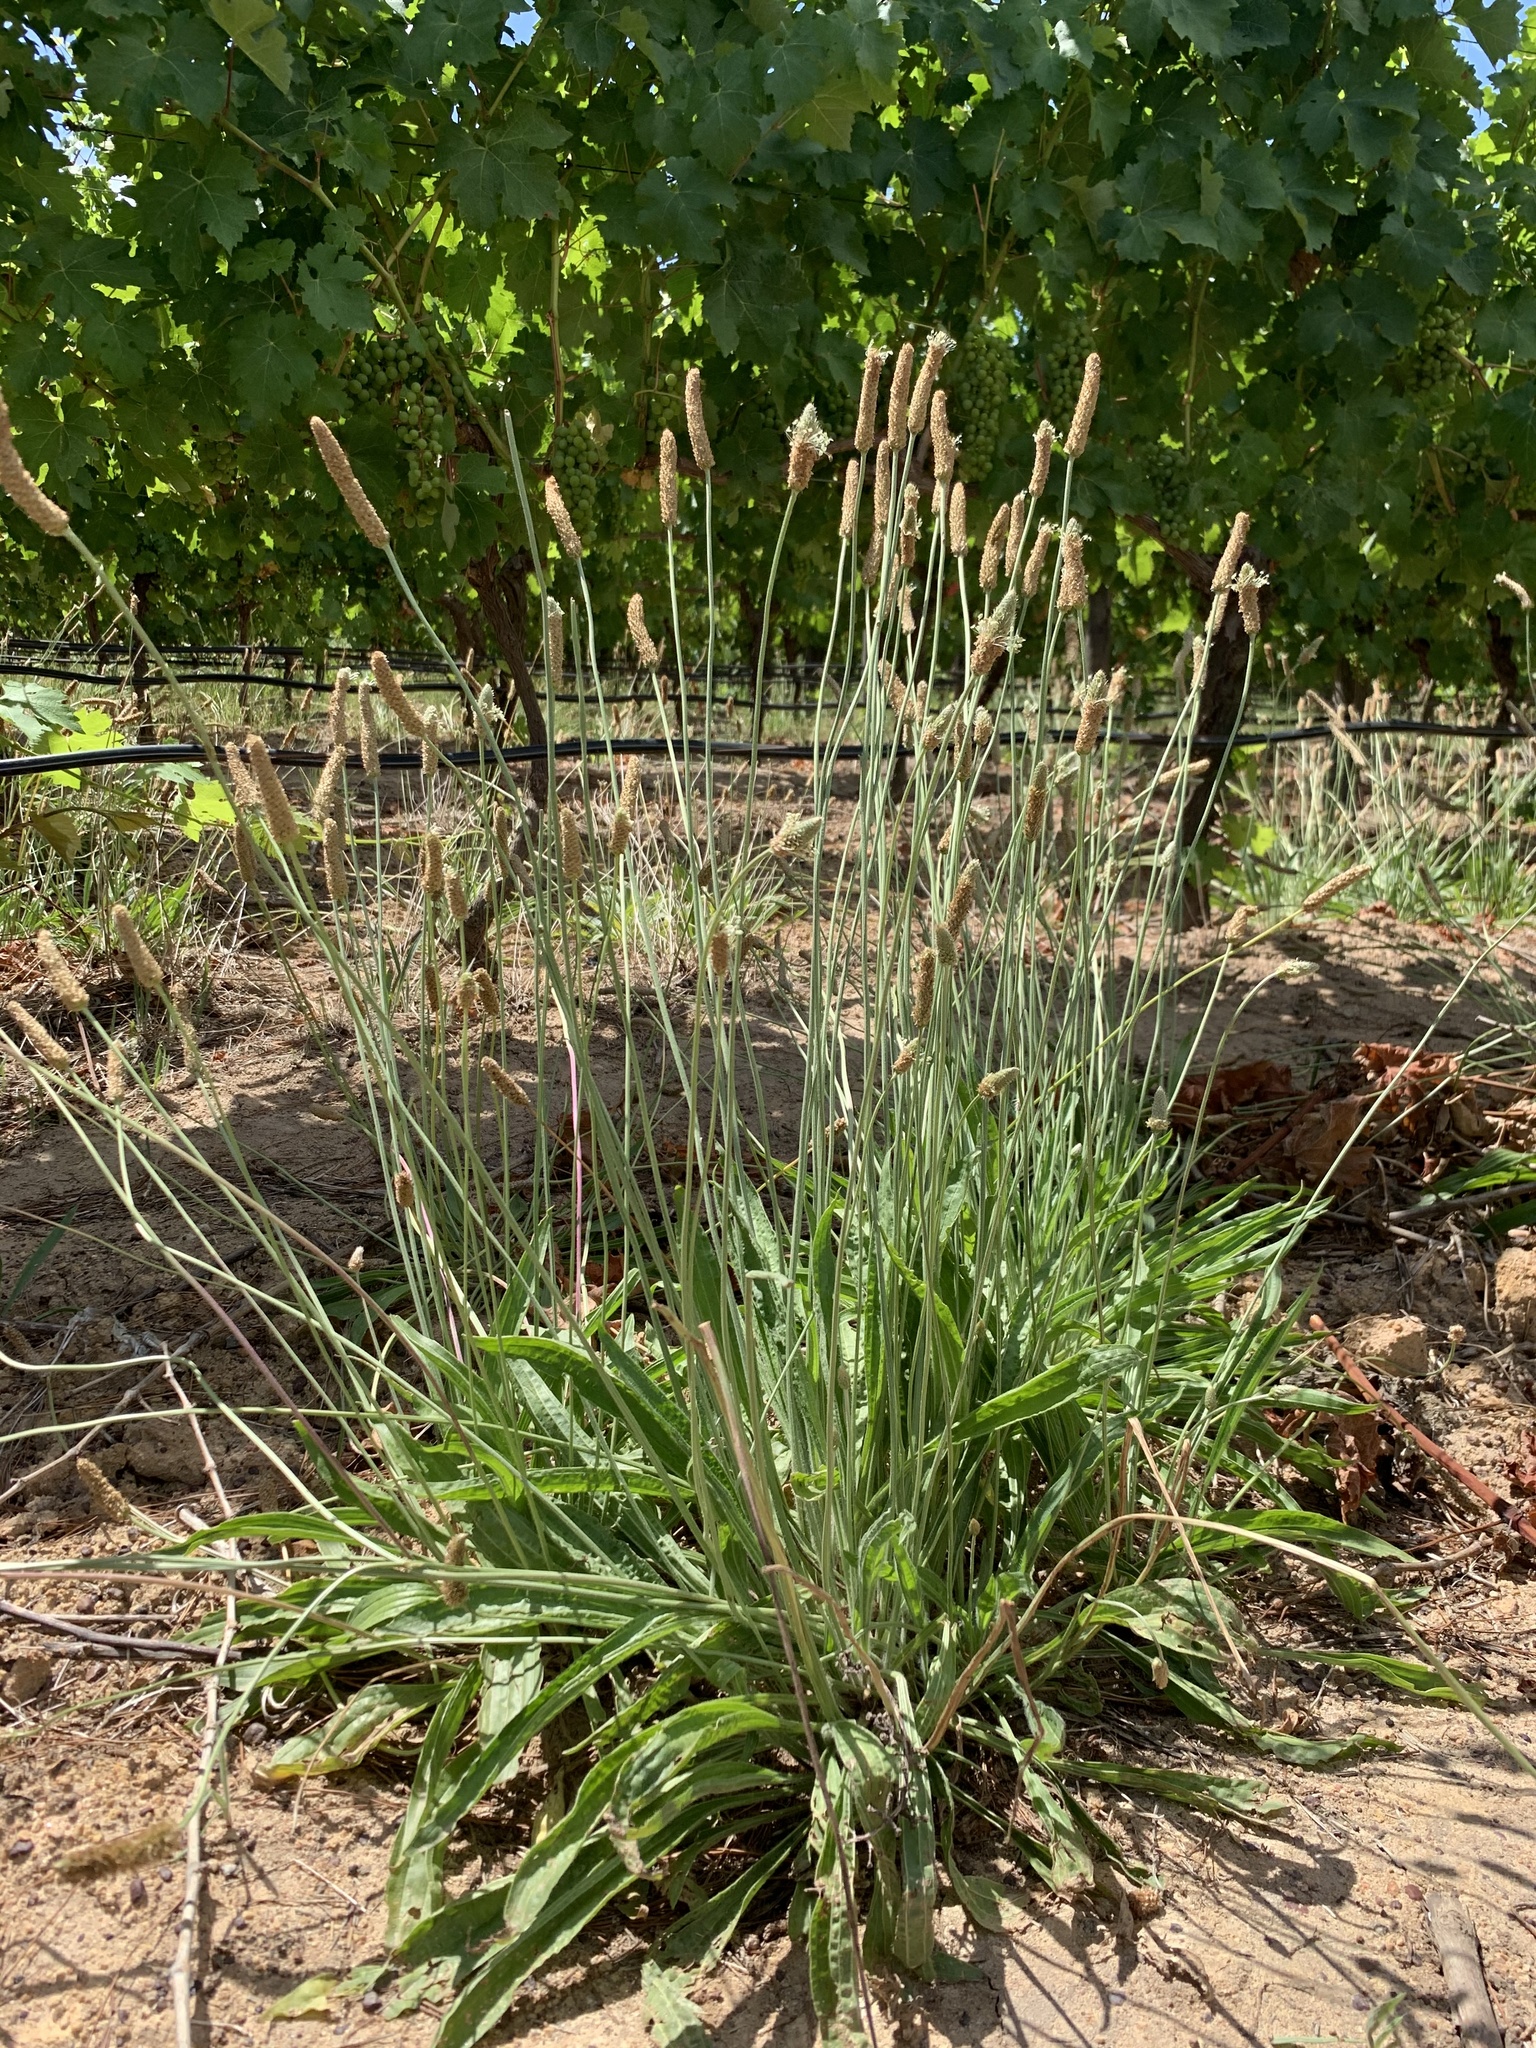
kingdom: Plantae
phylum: Tracheophyta
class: Magnoliopsida
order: Lamiales
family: Plantaginaceae
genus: Plantago
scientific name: Plantago lanceolata
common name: Ribwort plantain
